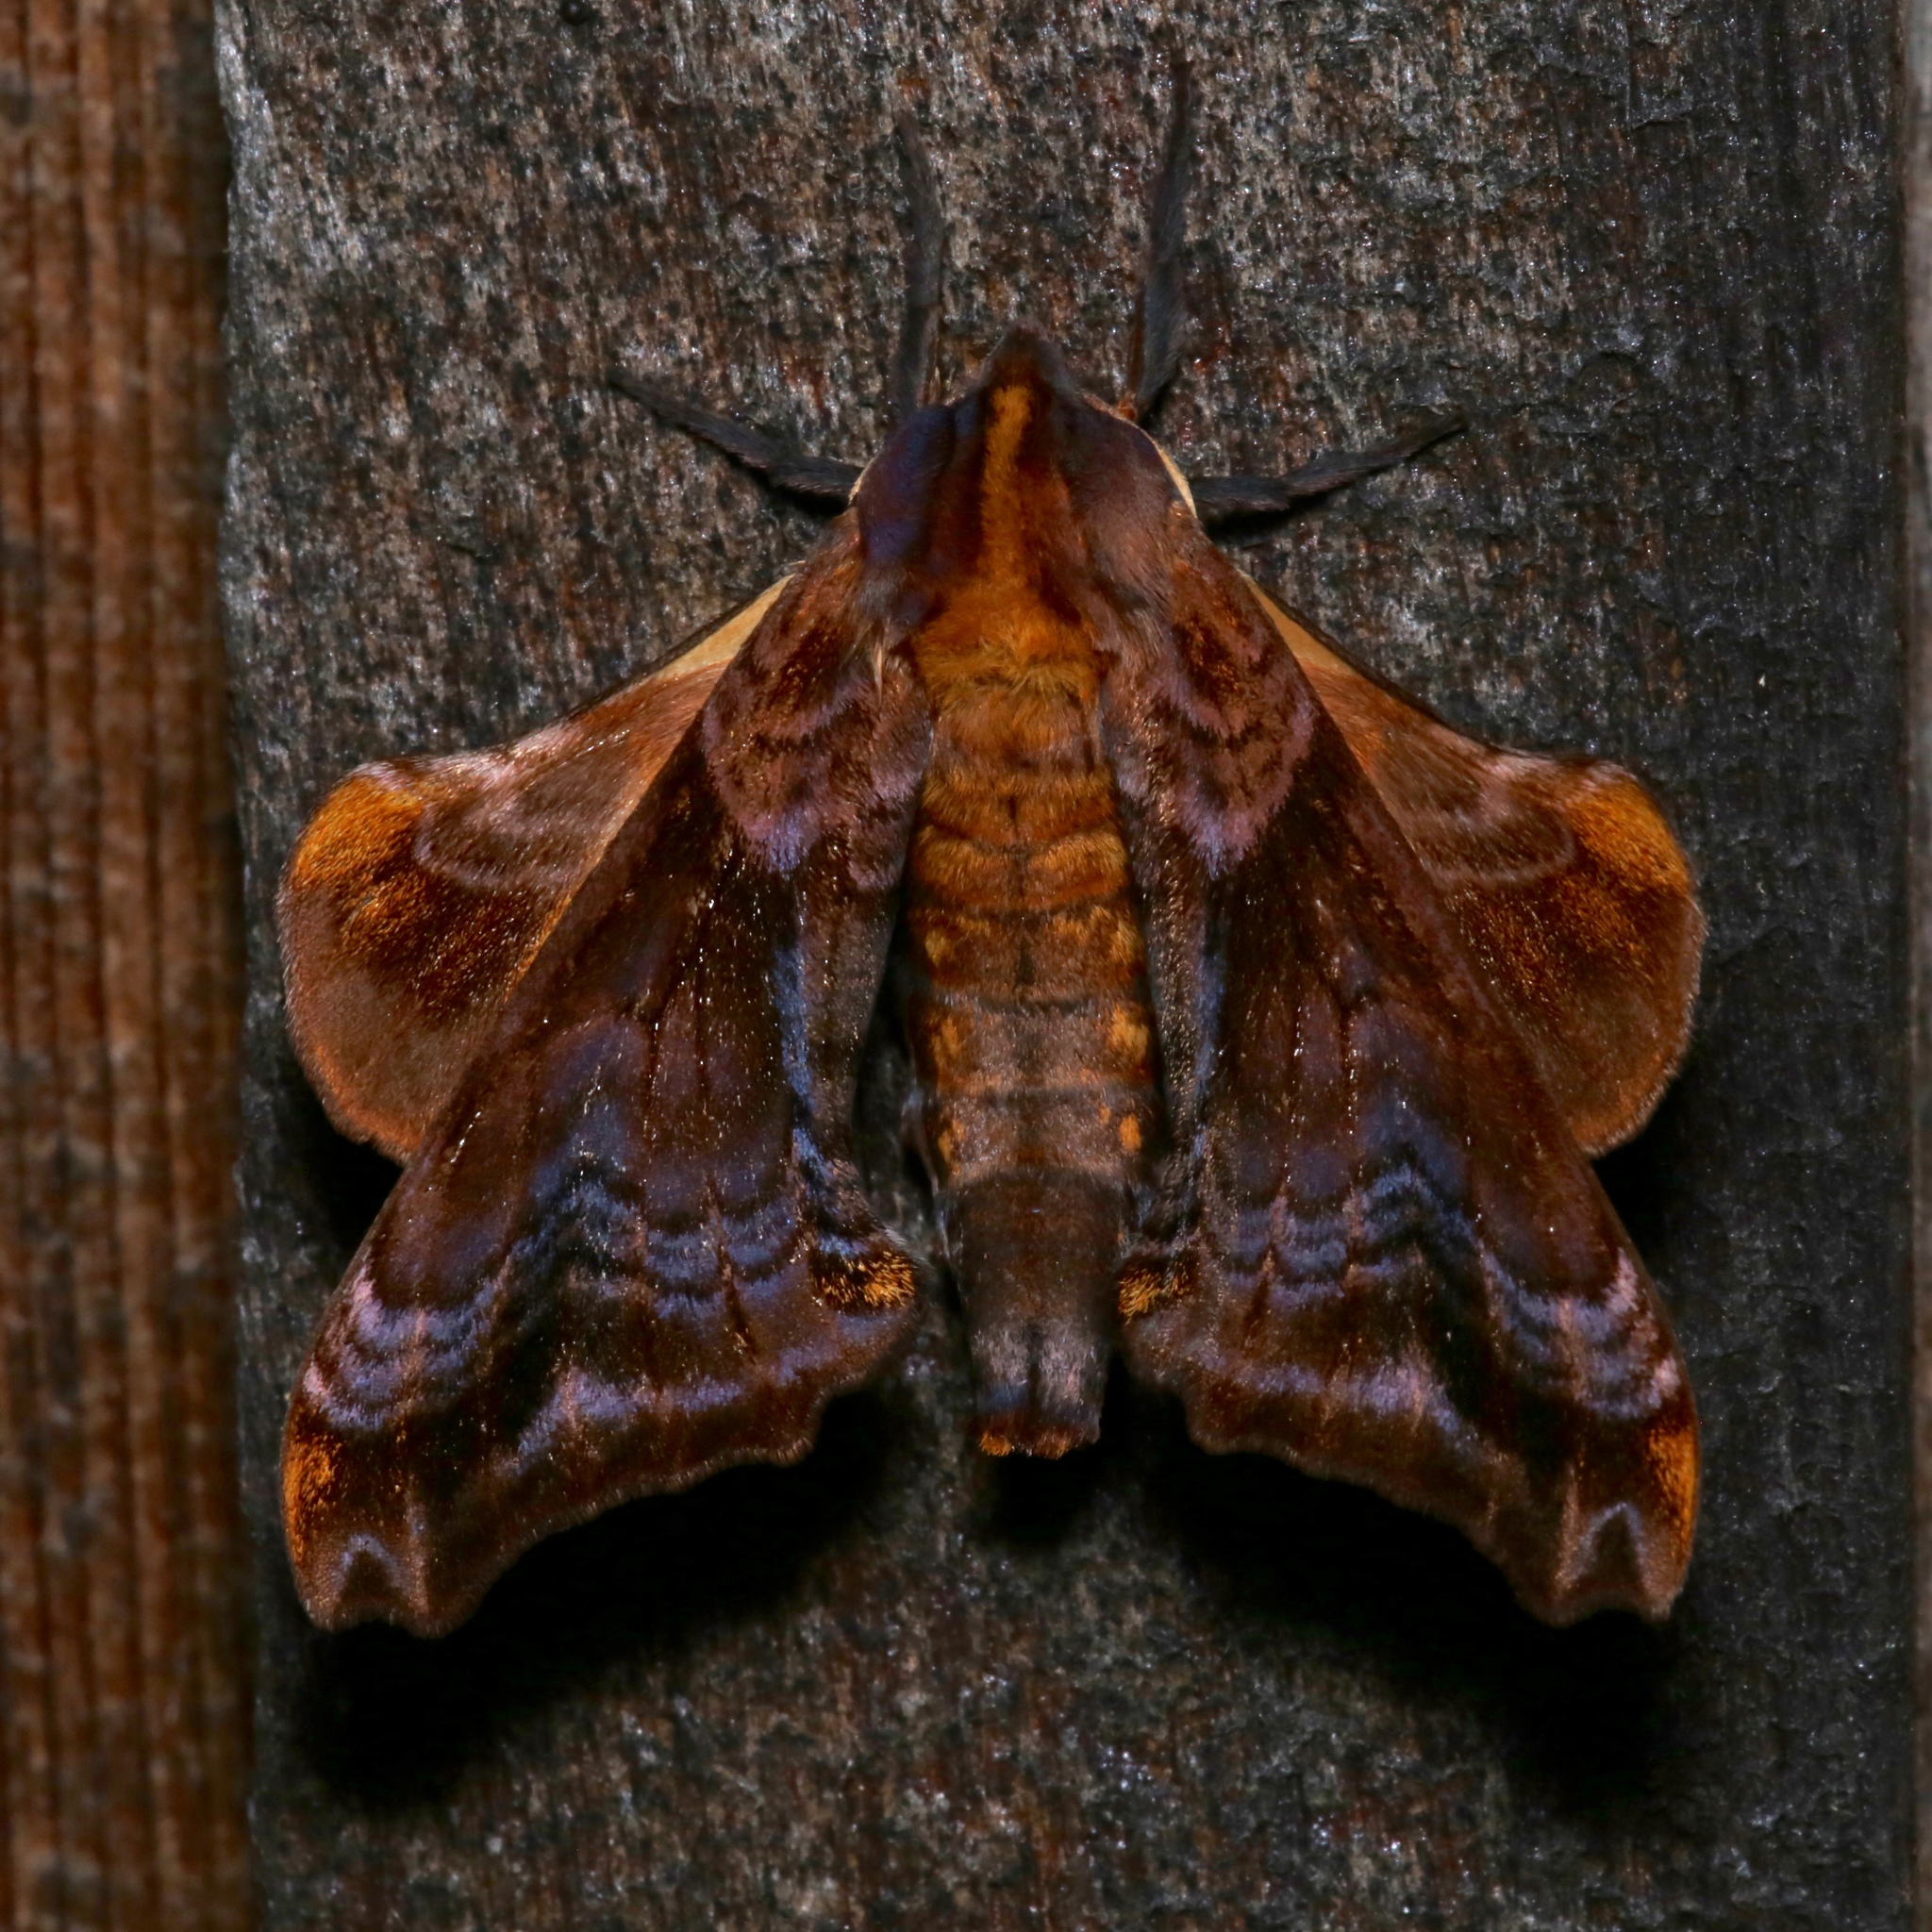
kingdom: Animalia
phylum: Arthropoda
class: Insecta
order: Lepidoptera
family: Sphingidae
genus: Paonias
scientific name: Paonias myops
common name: Small-eyed sphinx
